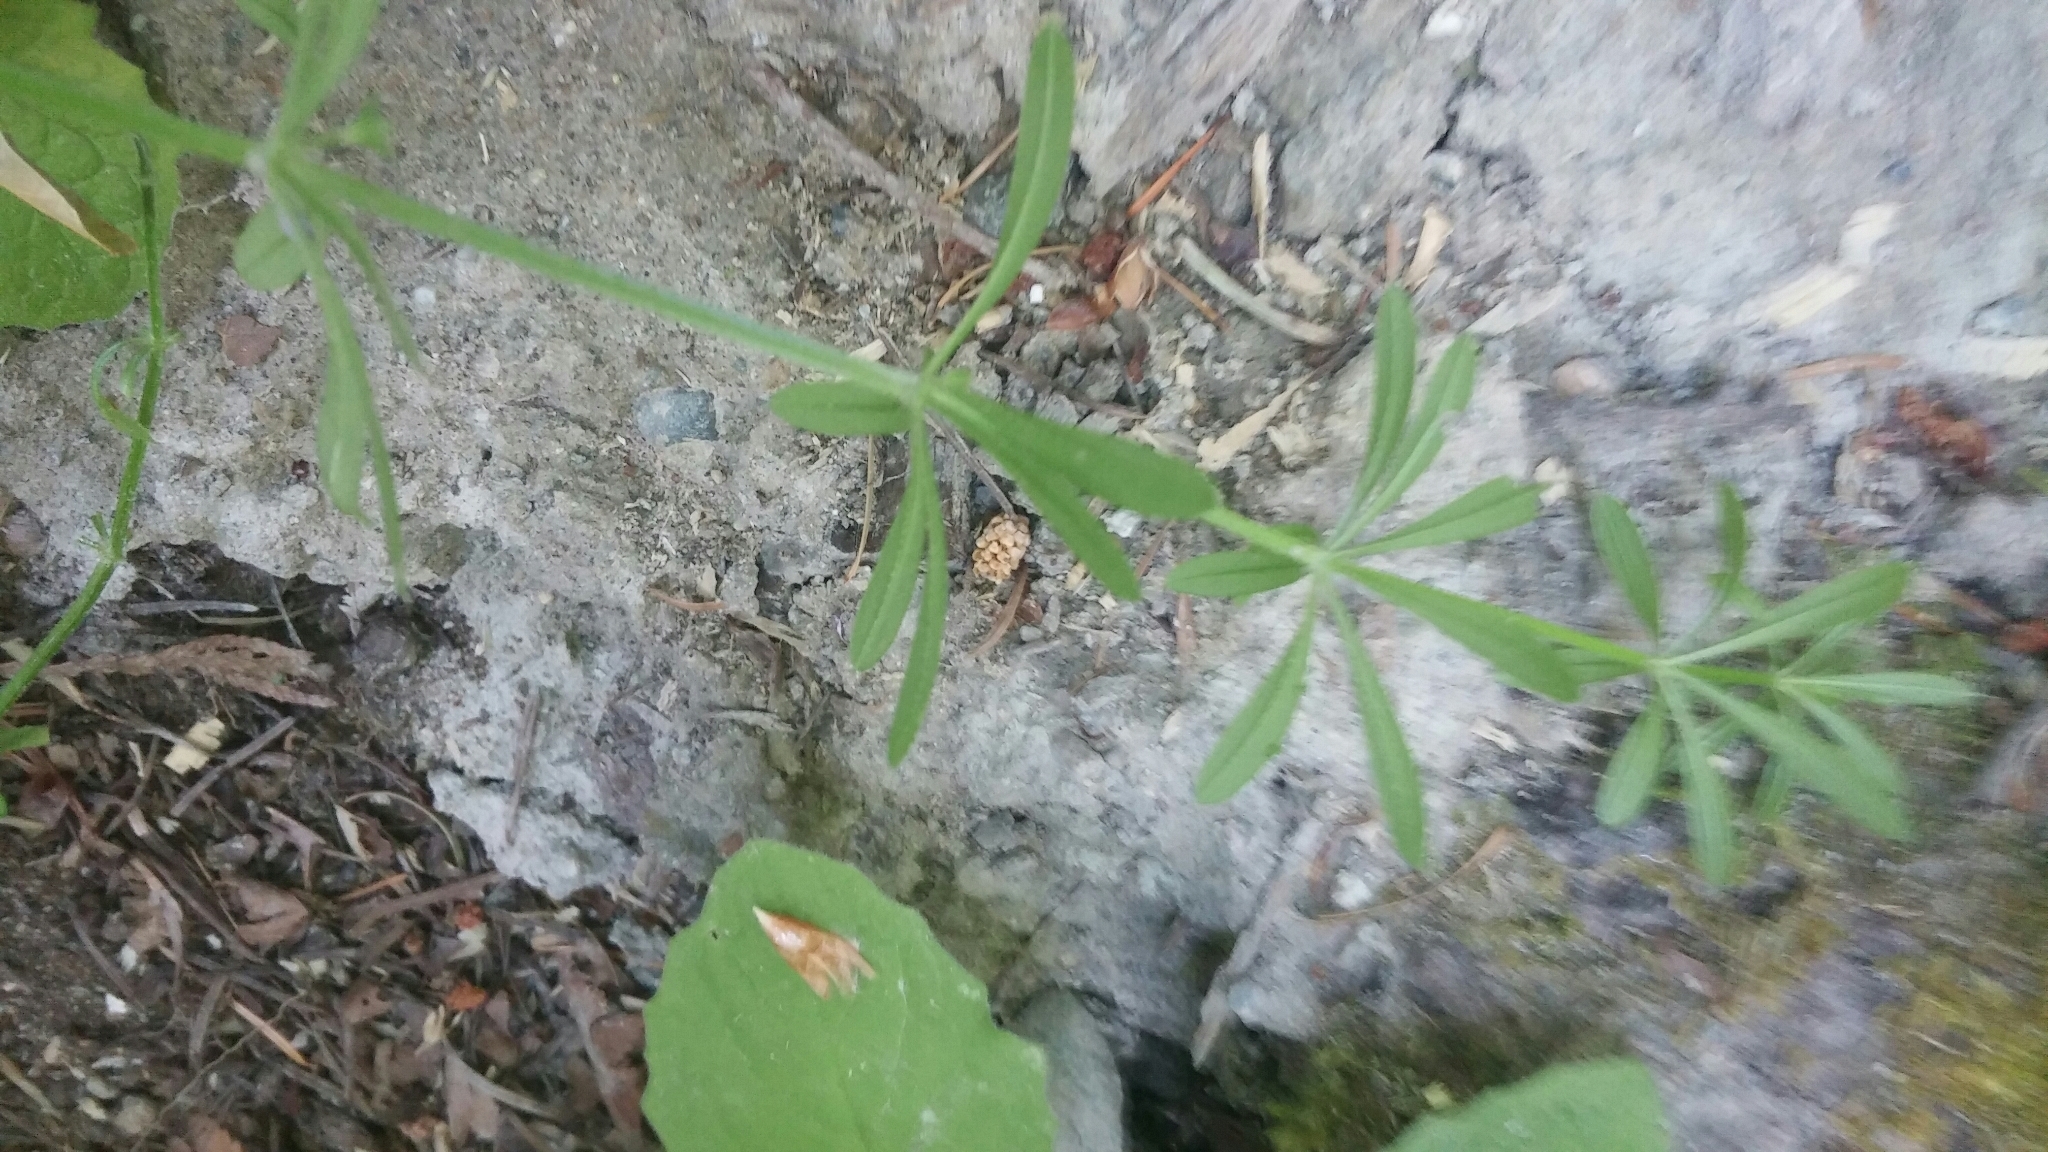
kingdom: Plantae
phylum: Tracheophyta
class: Magnoliopsida
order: Gentianales
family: Rubiaceae
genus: Galium
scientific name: Galium aparine
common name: Cleavers
